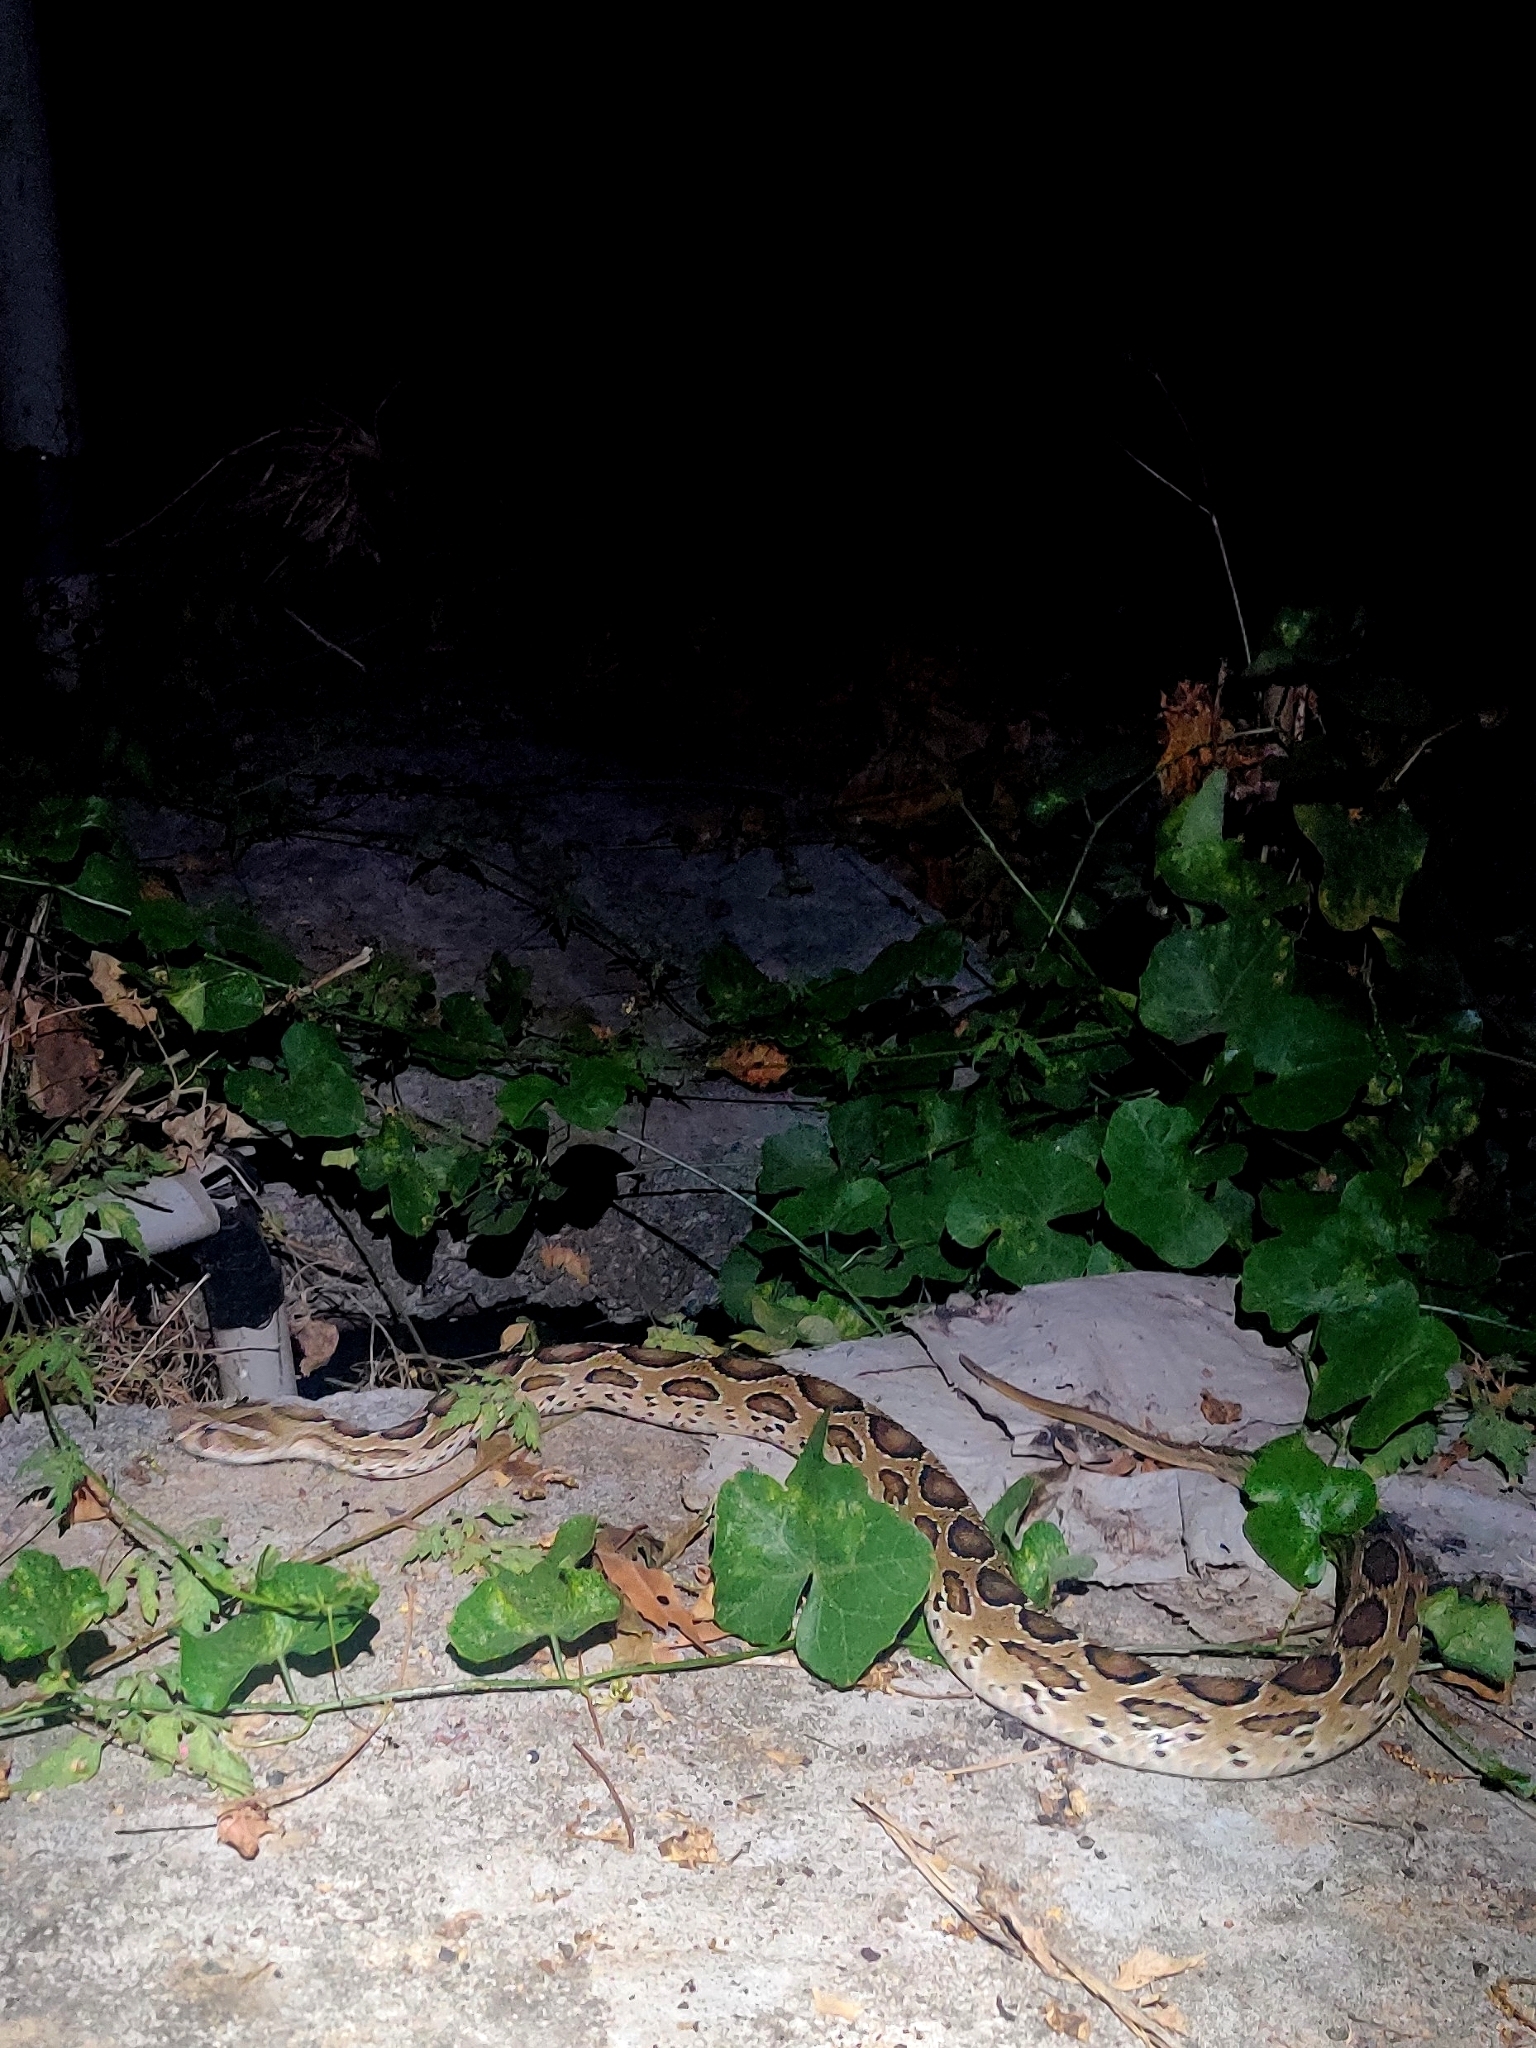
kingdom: Animalia
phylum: Chordata
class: Squamata
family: Viperidae
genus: Daboia
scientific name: Daboia russelii
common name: Western russel’s viper
